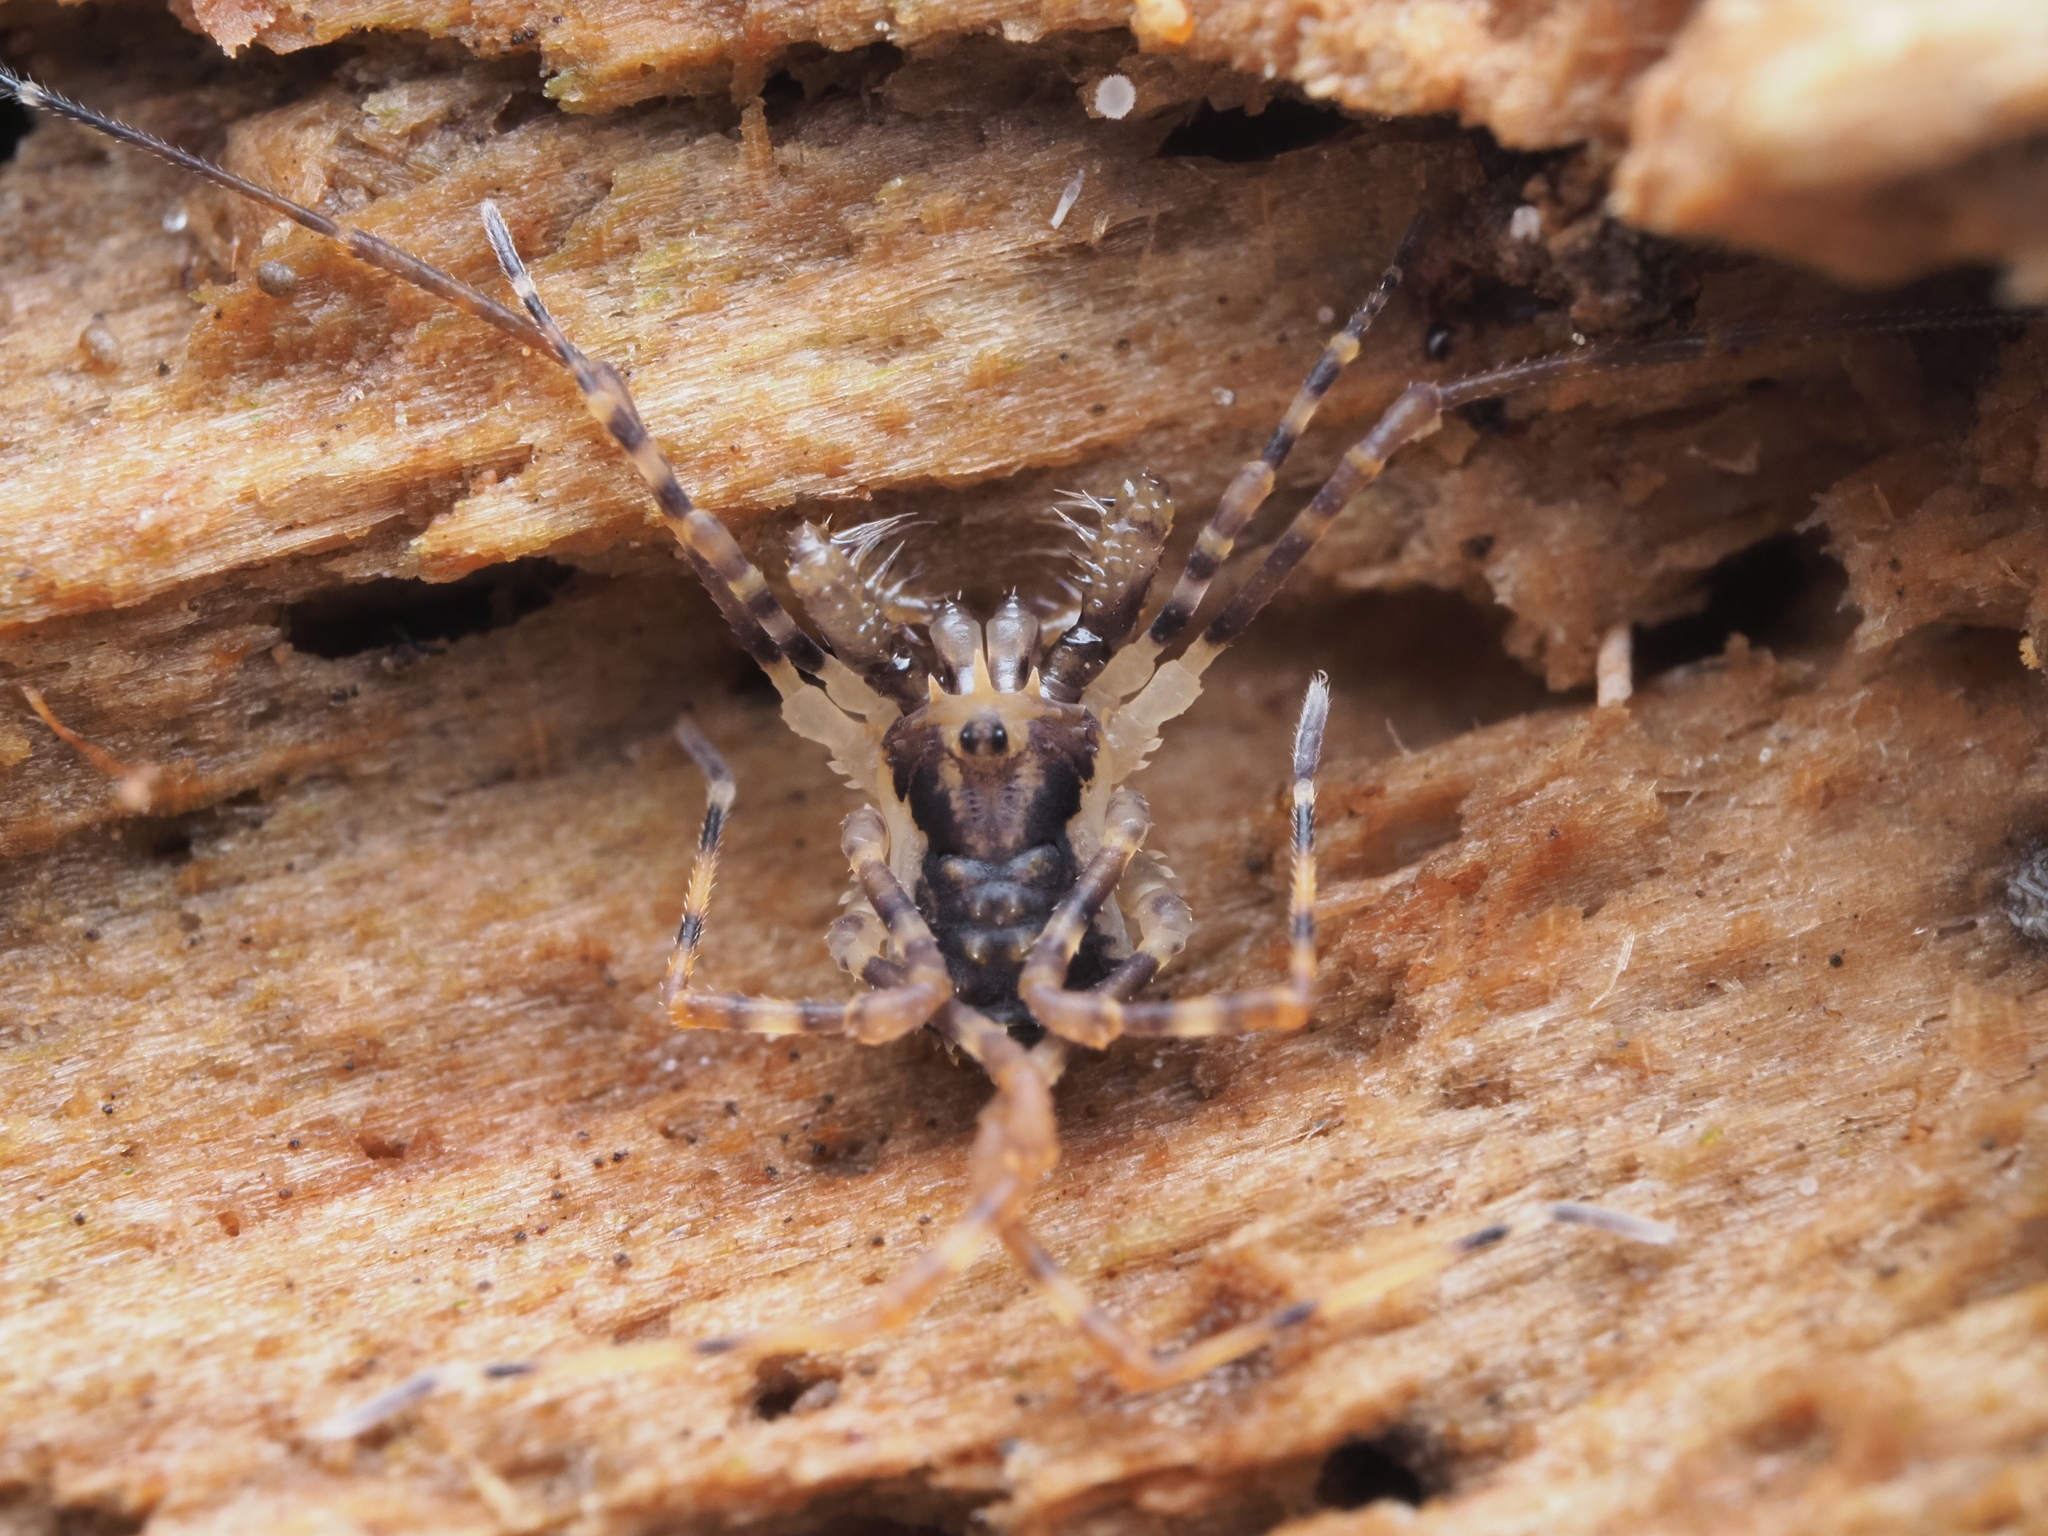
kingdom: Animalia
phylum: Arthropoda
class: Arachnida
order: Opiliones
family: Triaenonychidae
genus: Algidia
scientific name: Algidia chiltoni
